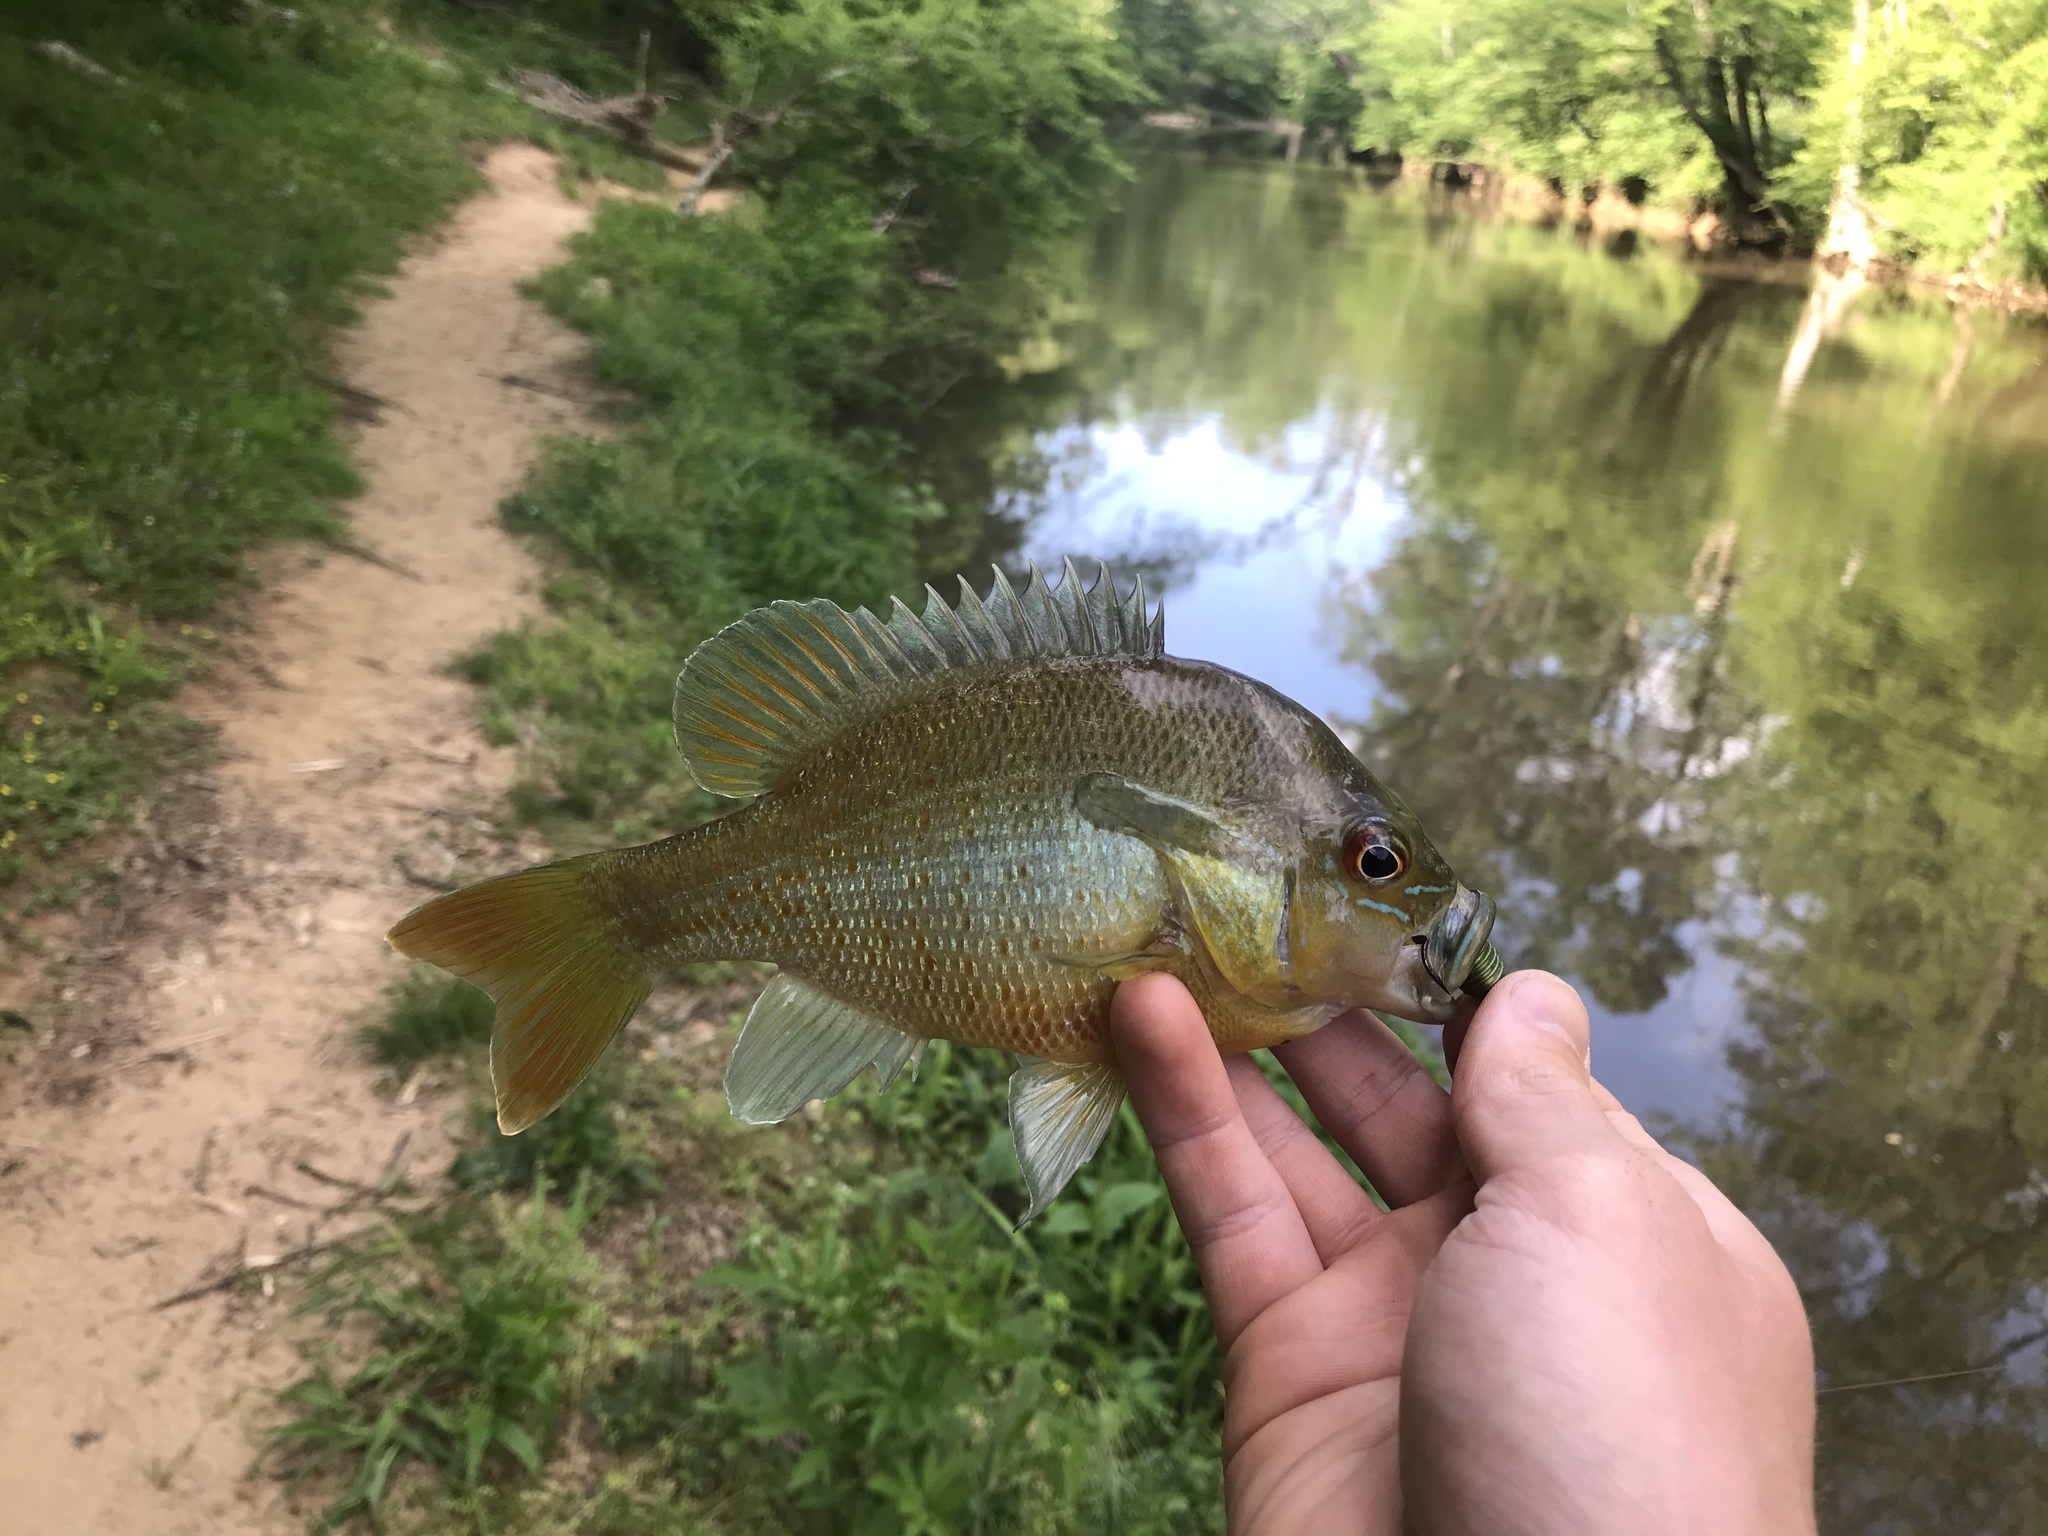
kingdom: Animalia
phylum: Chordata
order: Perciformes
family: Centrarchidae
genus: Lepomis
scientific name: Lepomis auritus
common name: Redbreast sunfish
